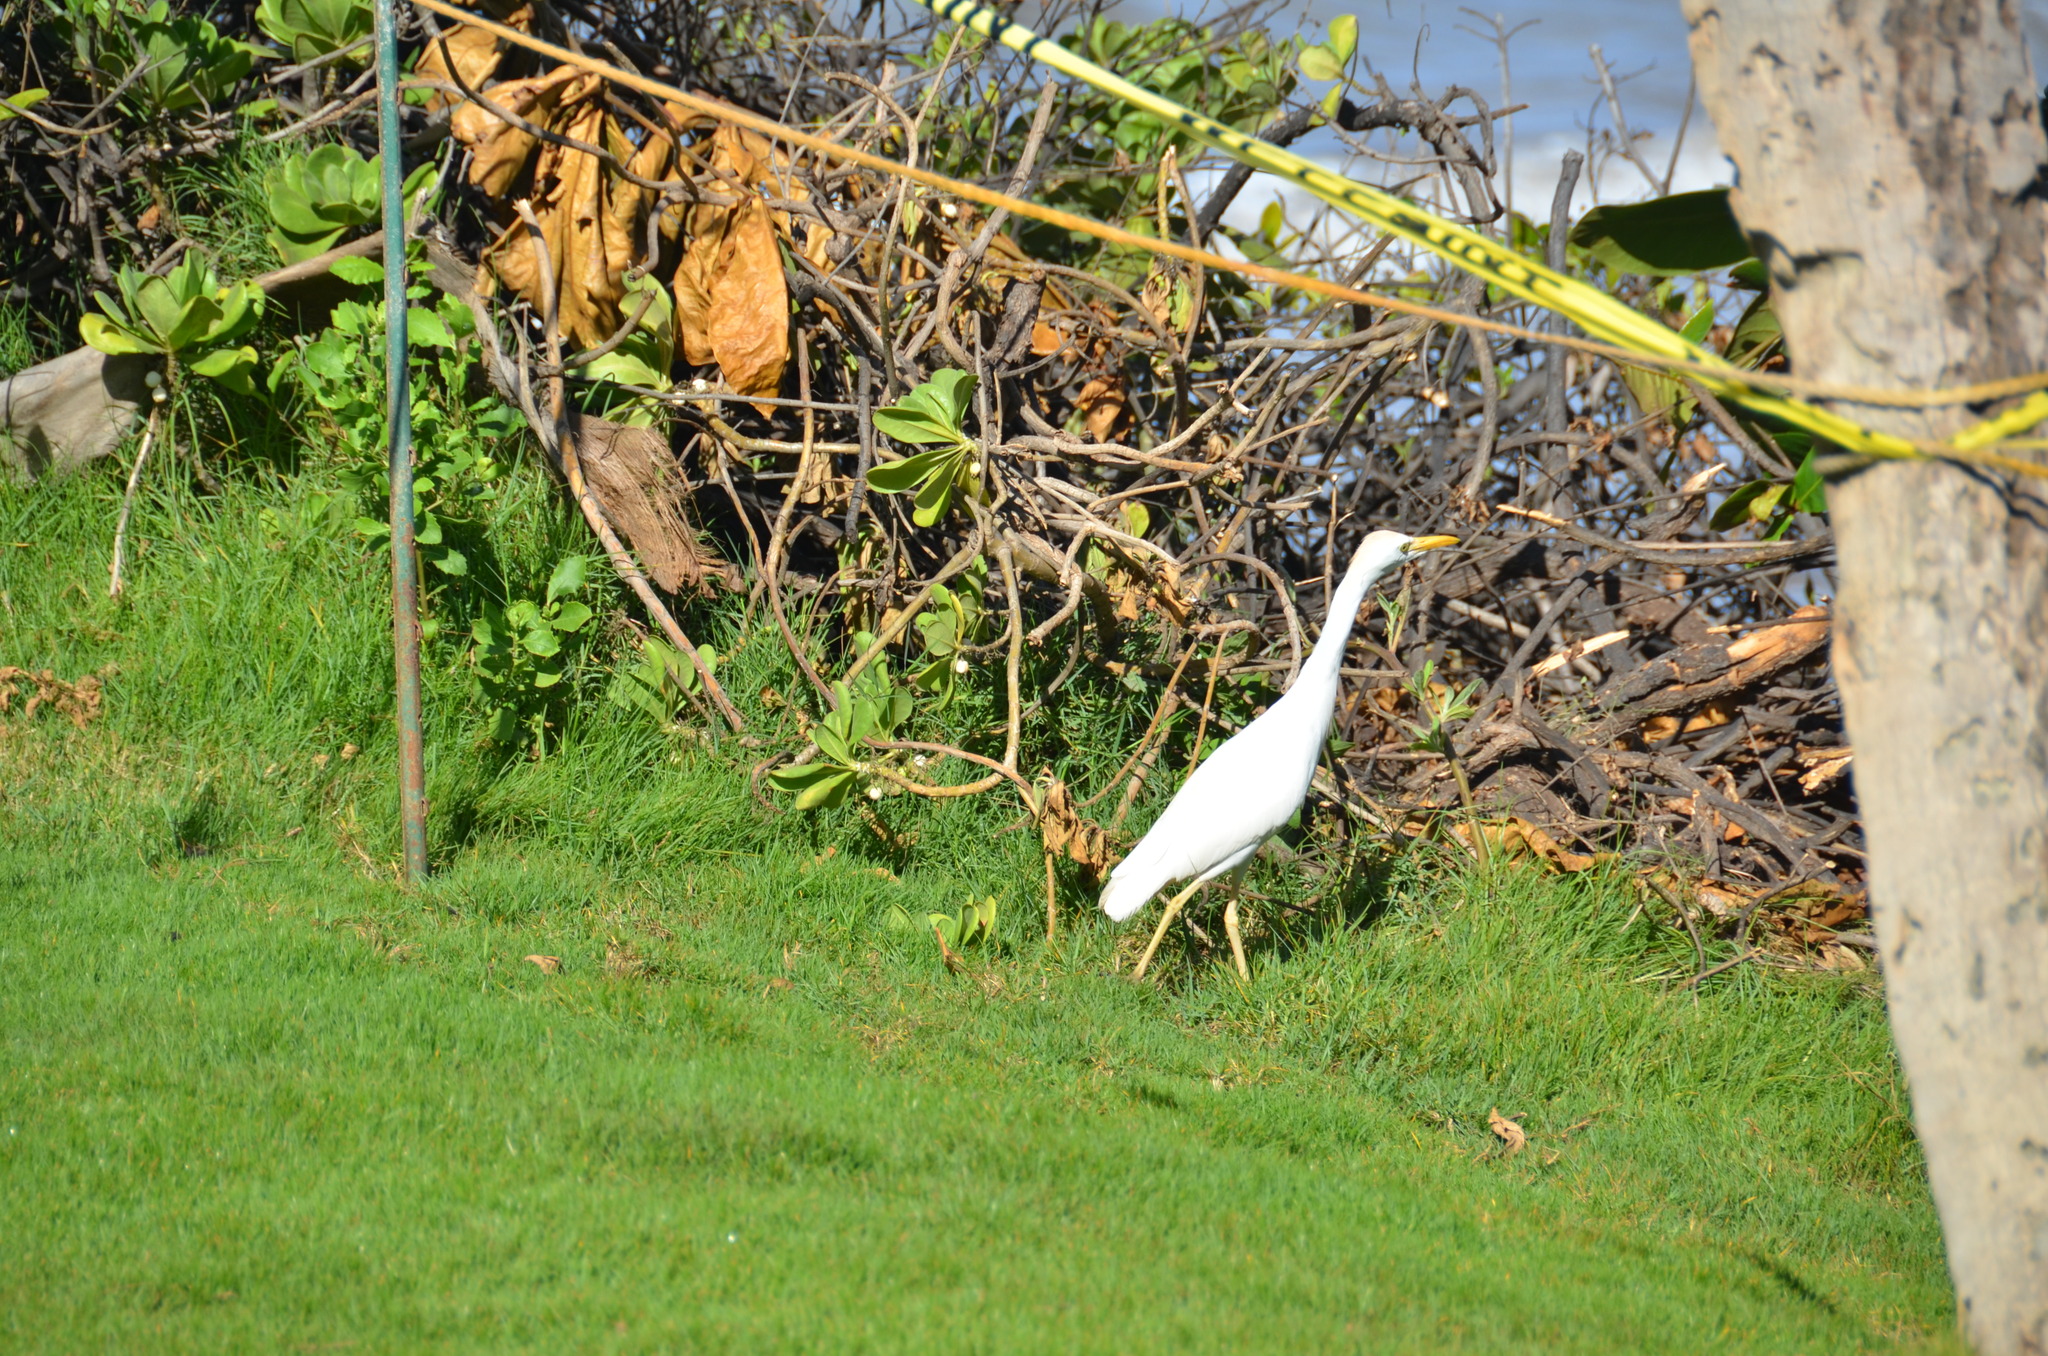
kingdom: Animalia
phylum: Chordata
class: Aves
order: Pelecaniformes
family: Ardeidae
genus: Bubulcus
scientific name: Bubulcus ibis
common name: Cattle egret
